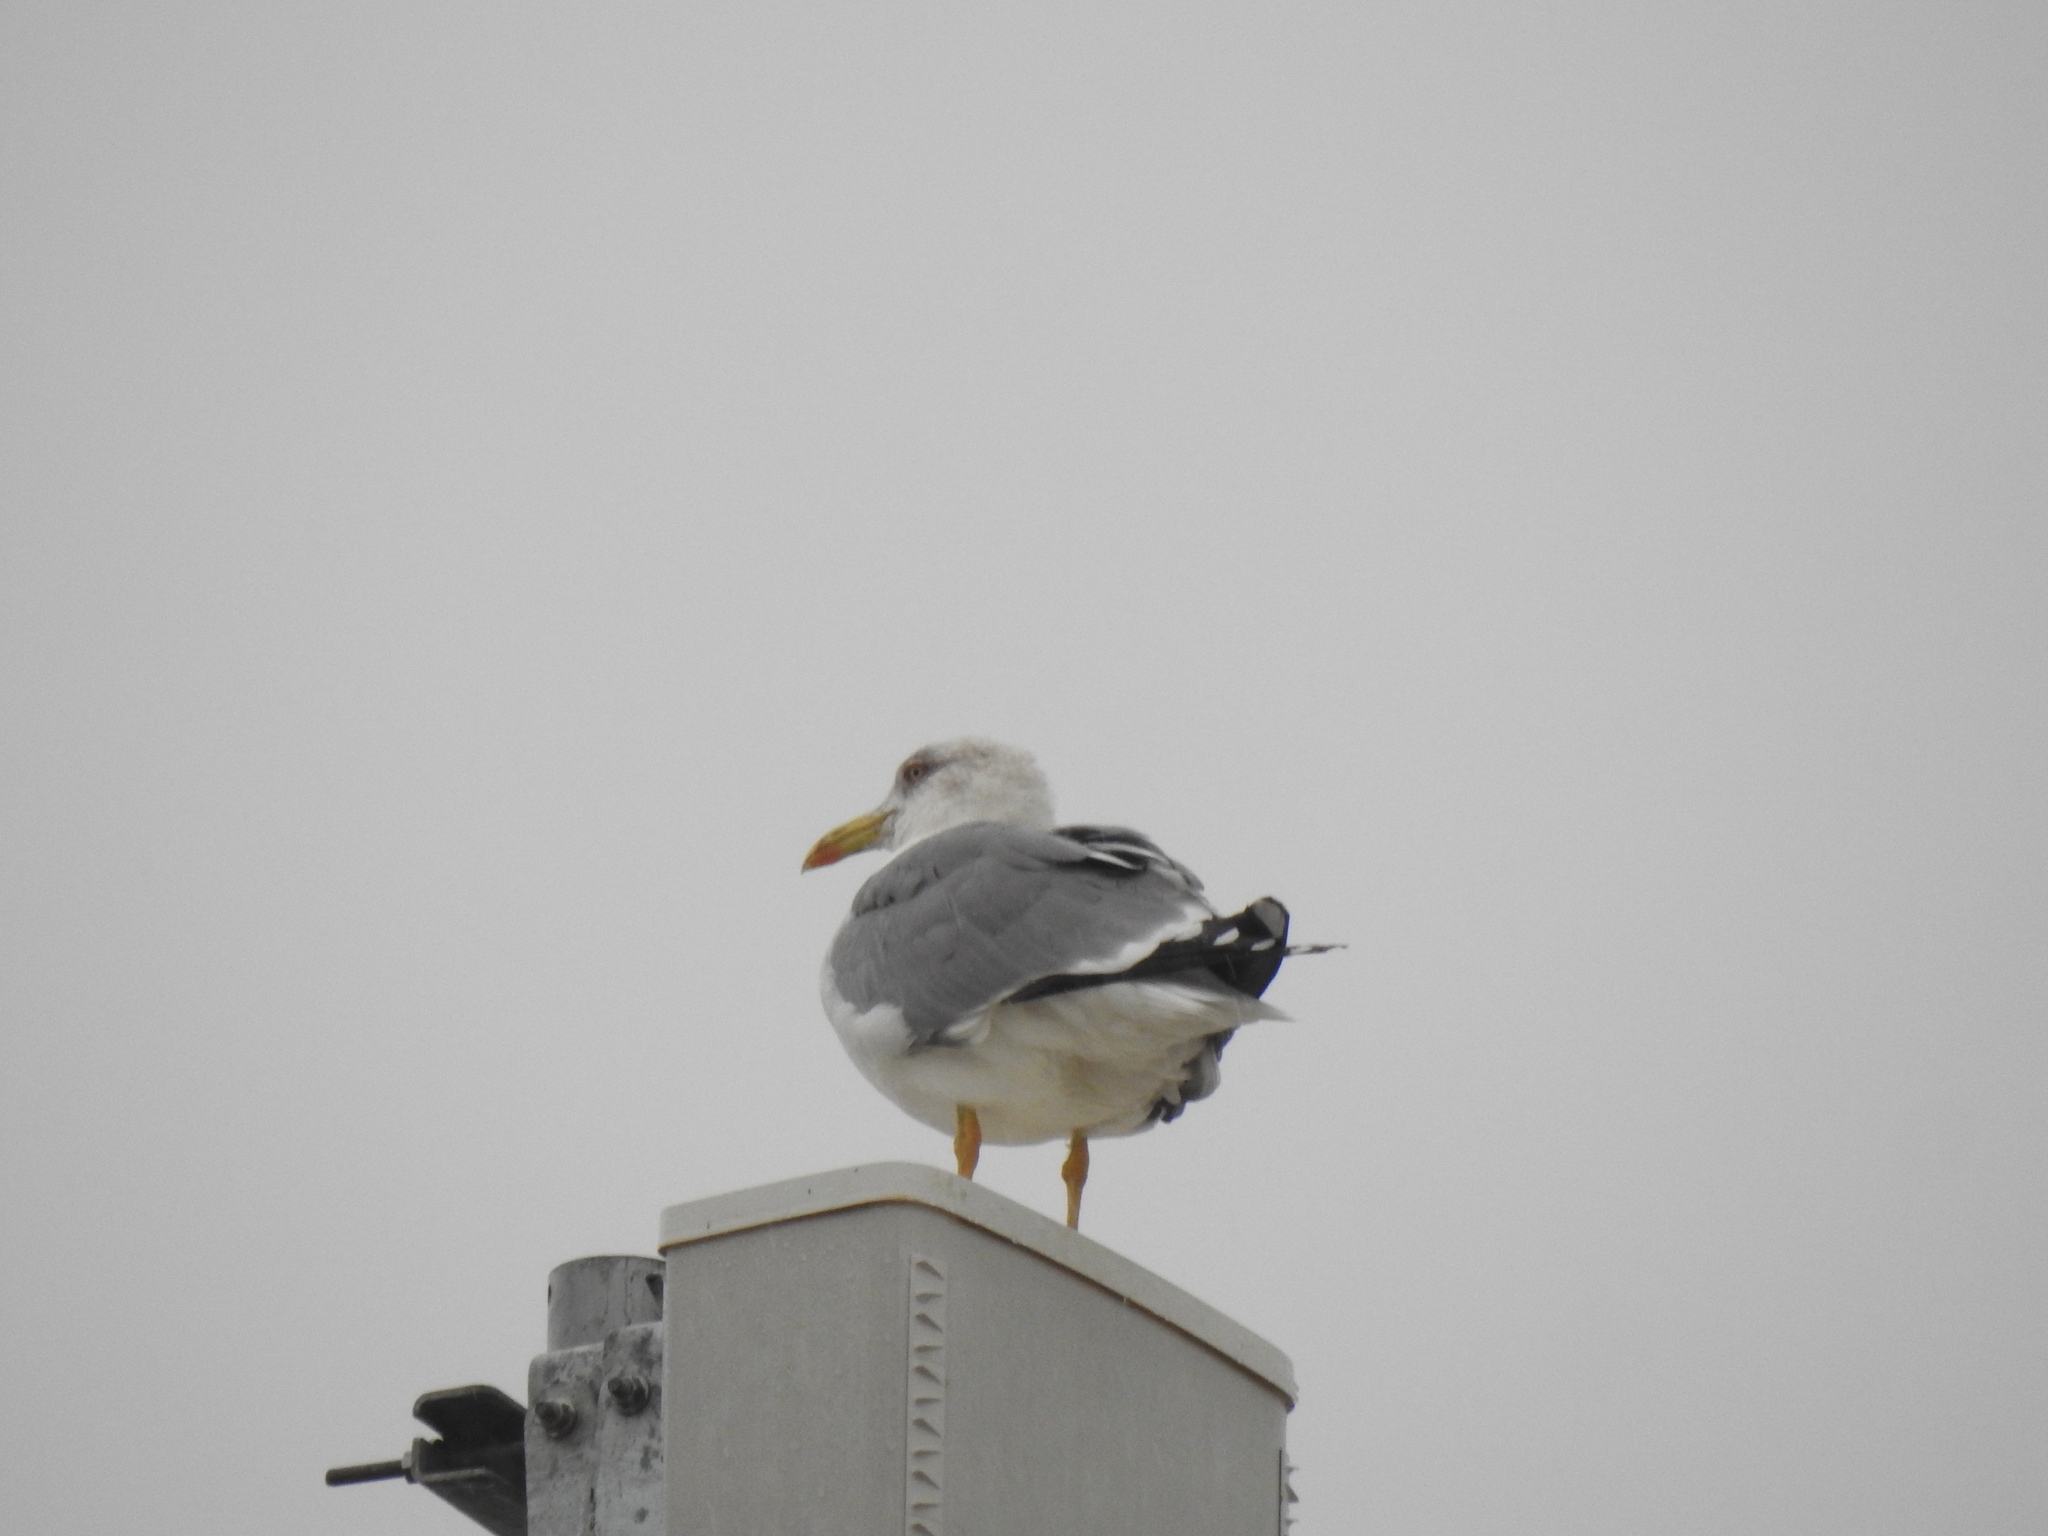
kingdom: Animalia
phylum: Chordata
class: Aves
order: Charadriiformes
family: Laridae
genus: Larus
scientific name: Larus michahellis
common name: Yellow-legged gull
